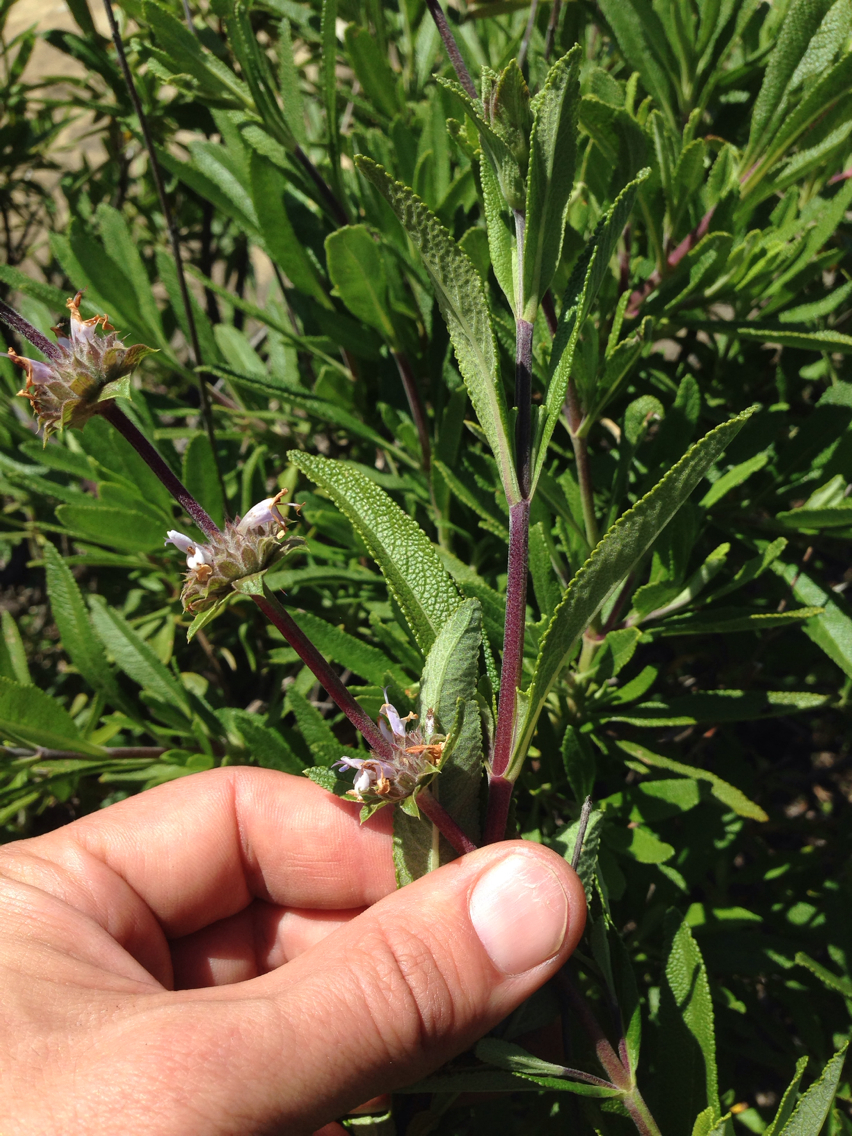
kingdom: Plantae
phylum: Tracheophyta
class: Magnoliopsida
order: Lamiales
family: Lamiaceae
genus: Salvia
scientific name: Salvia mellifera
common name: Black sage
